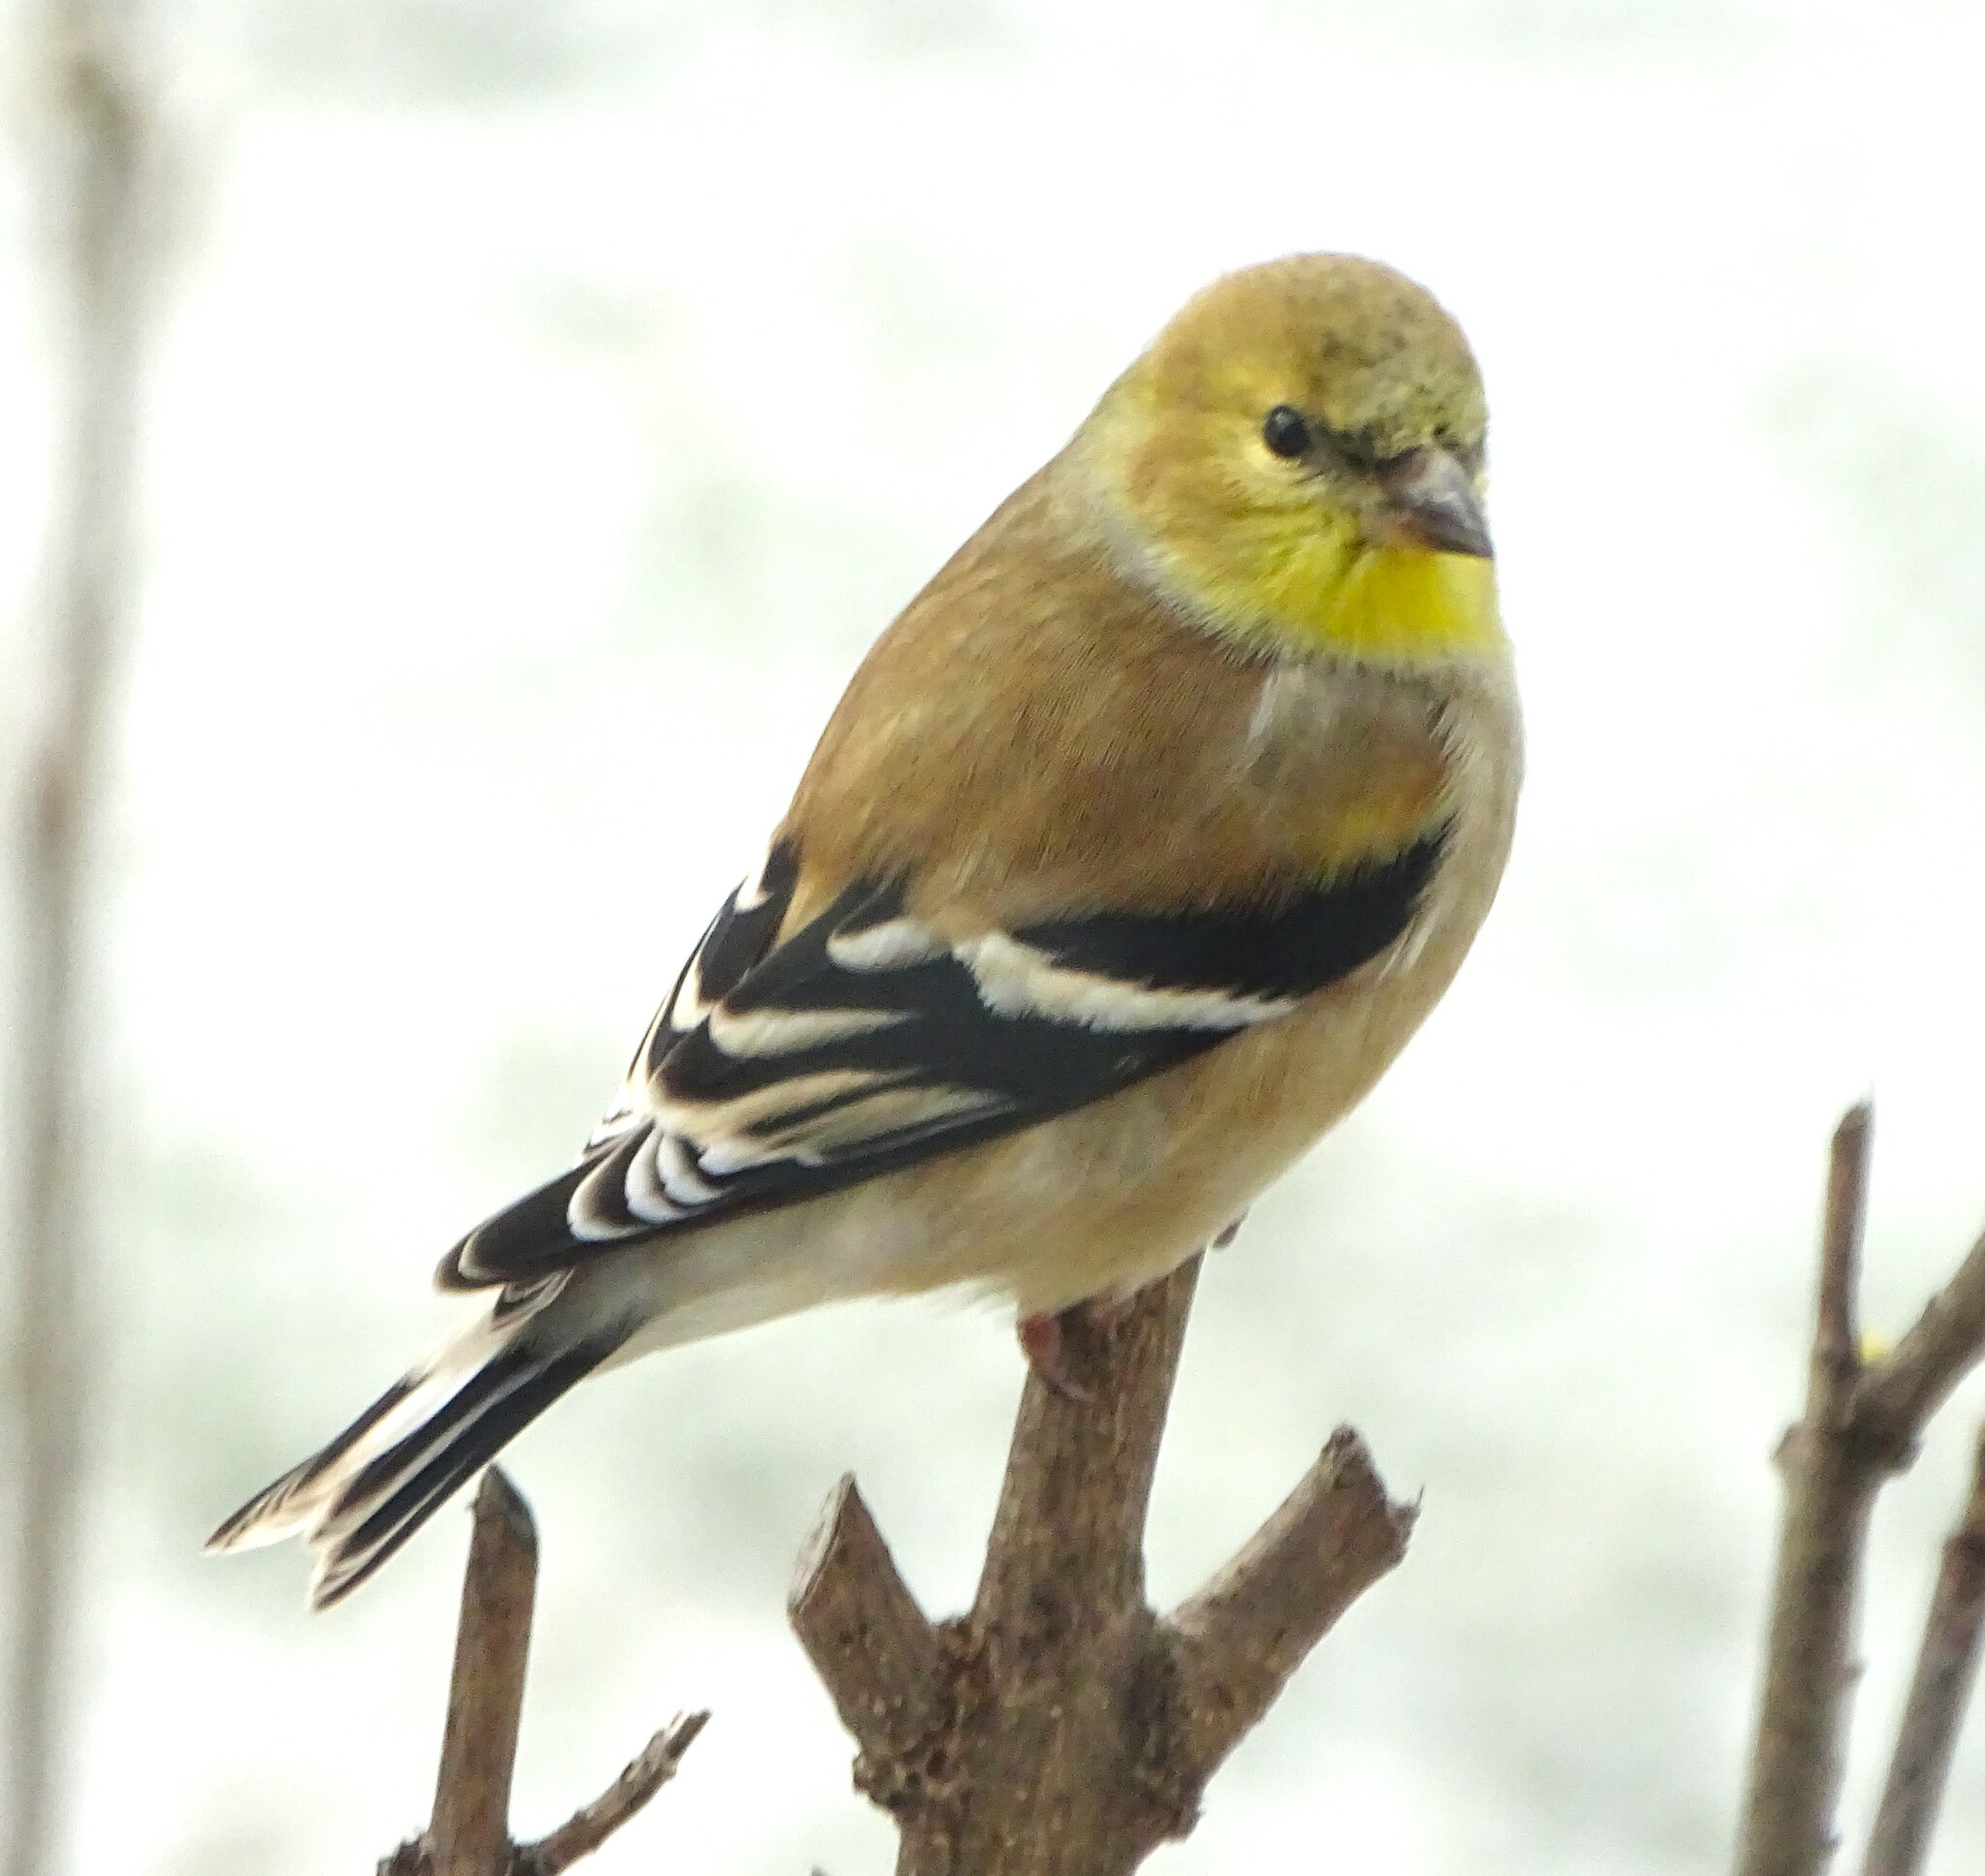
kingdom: Animalia
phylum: Chordata
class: Aves
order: Passeriformes
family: Fringillidae
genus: Spinus
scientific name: Spinus tristis
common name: American goldfinch
